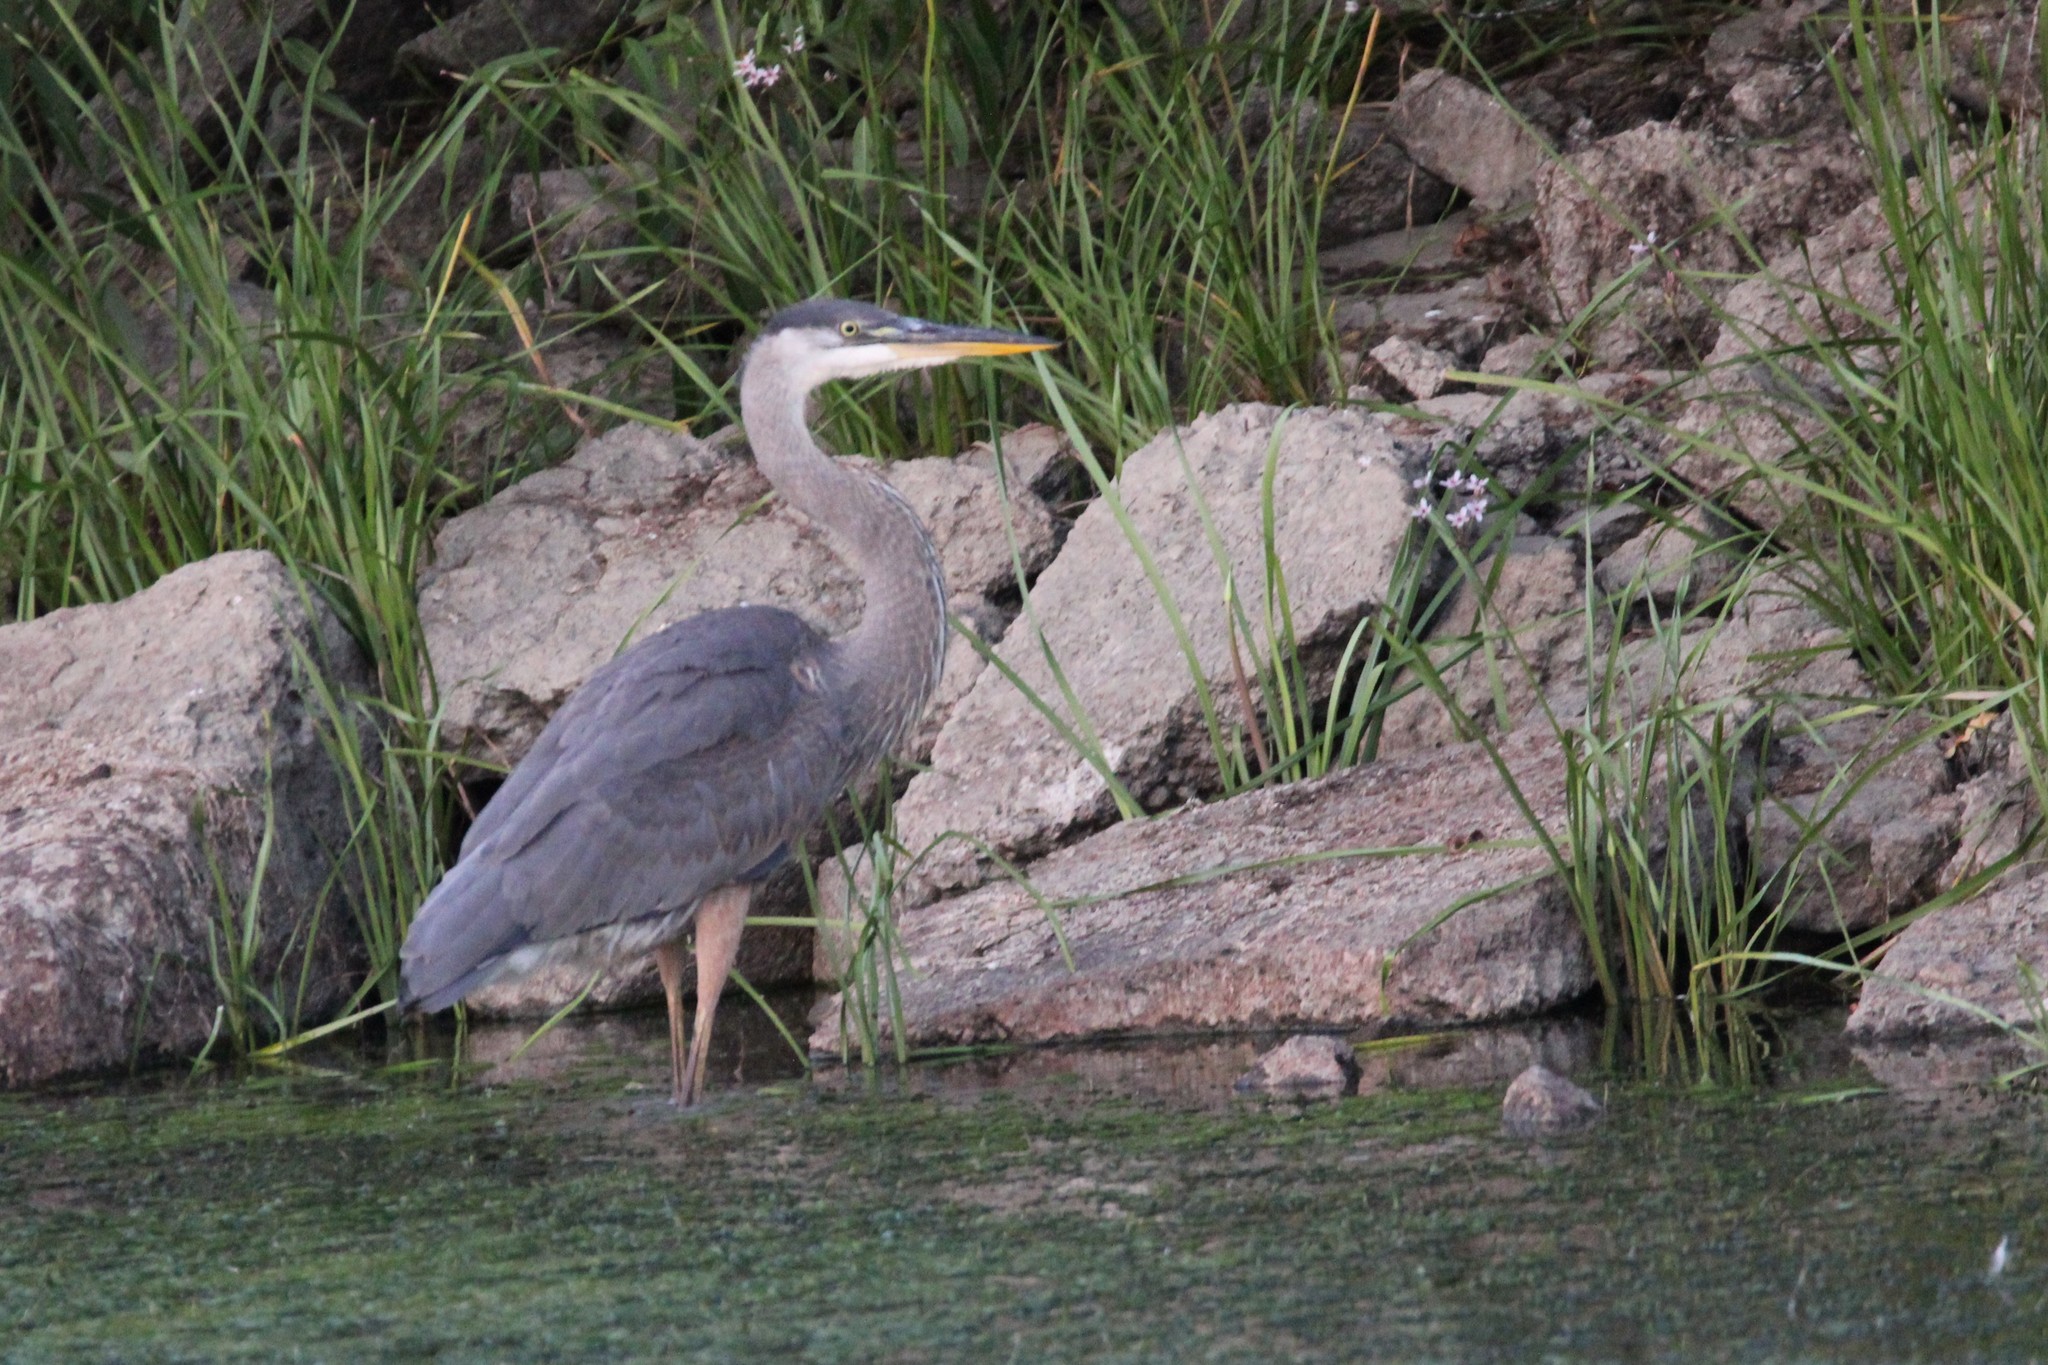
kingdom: Animalia
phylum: Chordata
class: Aves
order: Pelecaniformes
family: Ardeidae
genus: Ardea
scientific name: Ardea herodias
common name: Great blue heron
